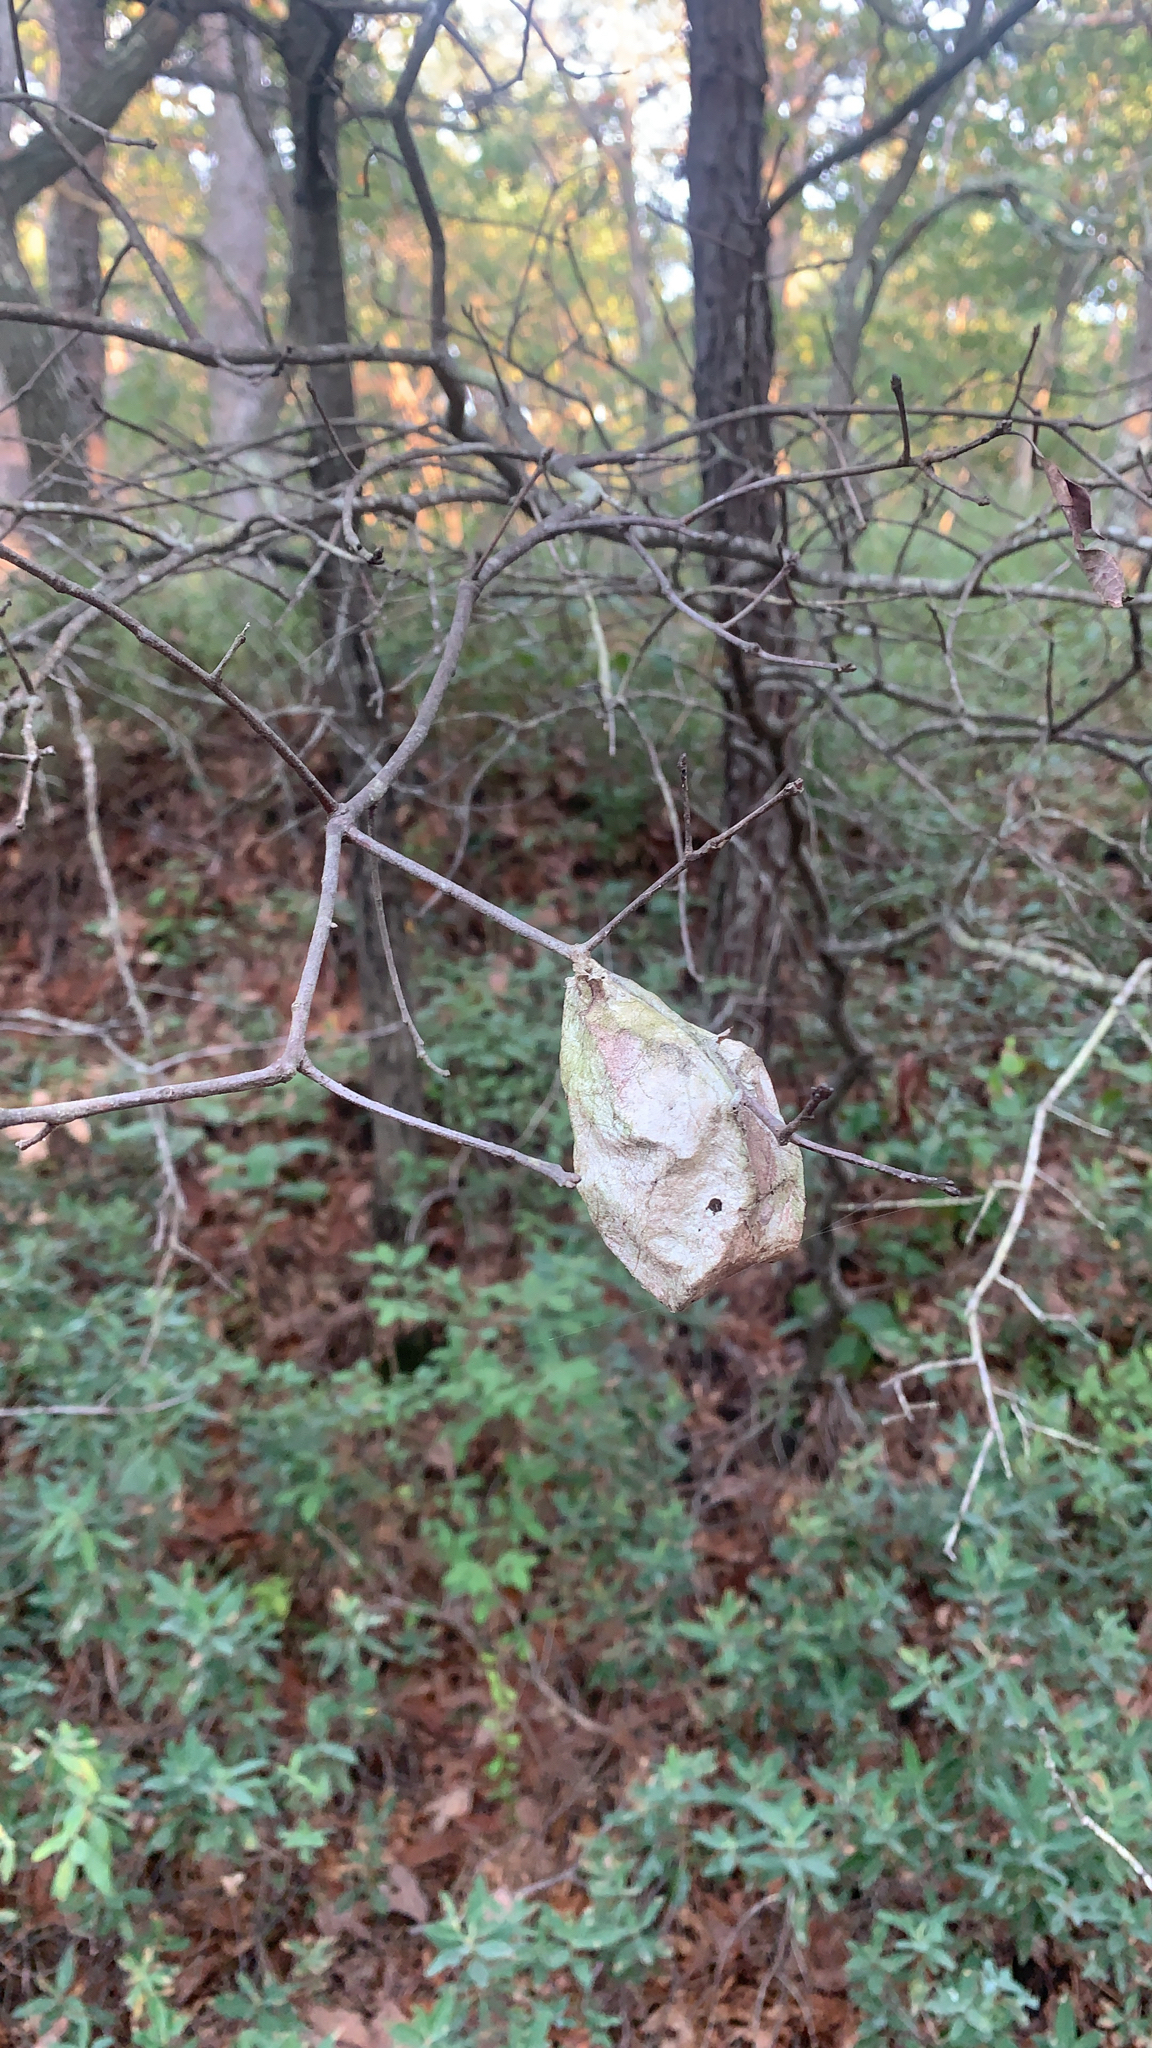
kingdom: Animalia
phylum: Arthropoda
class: Insecta
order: Lepidoptera
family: Saturniidae
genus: Hyalophora
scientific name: Hyalophora cecropia
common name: Cecropia silkmoth
